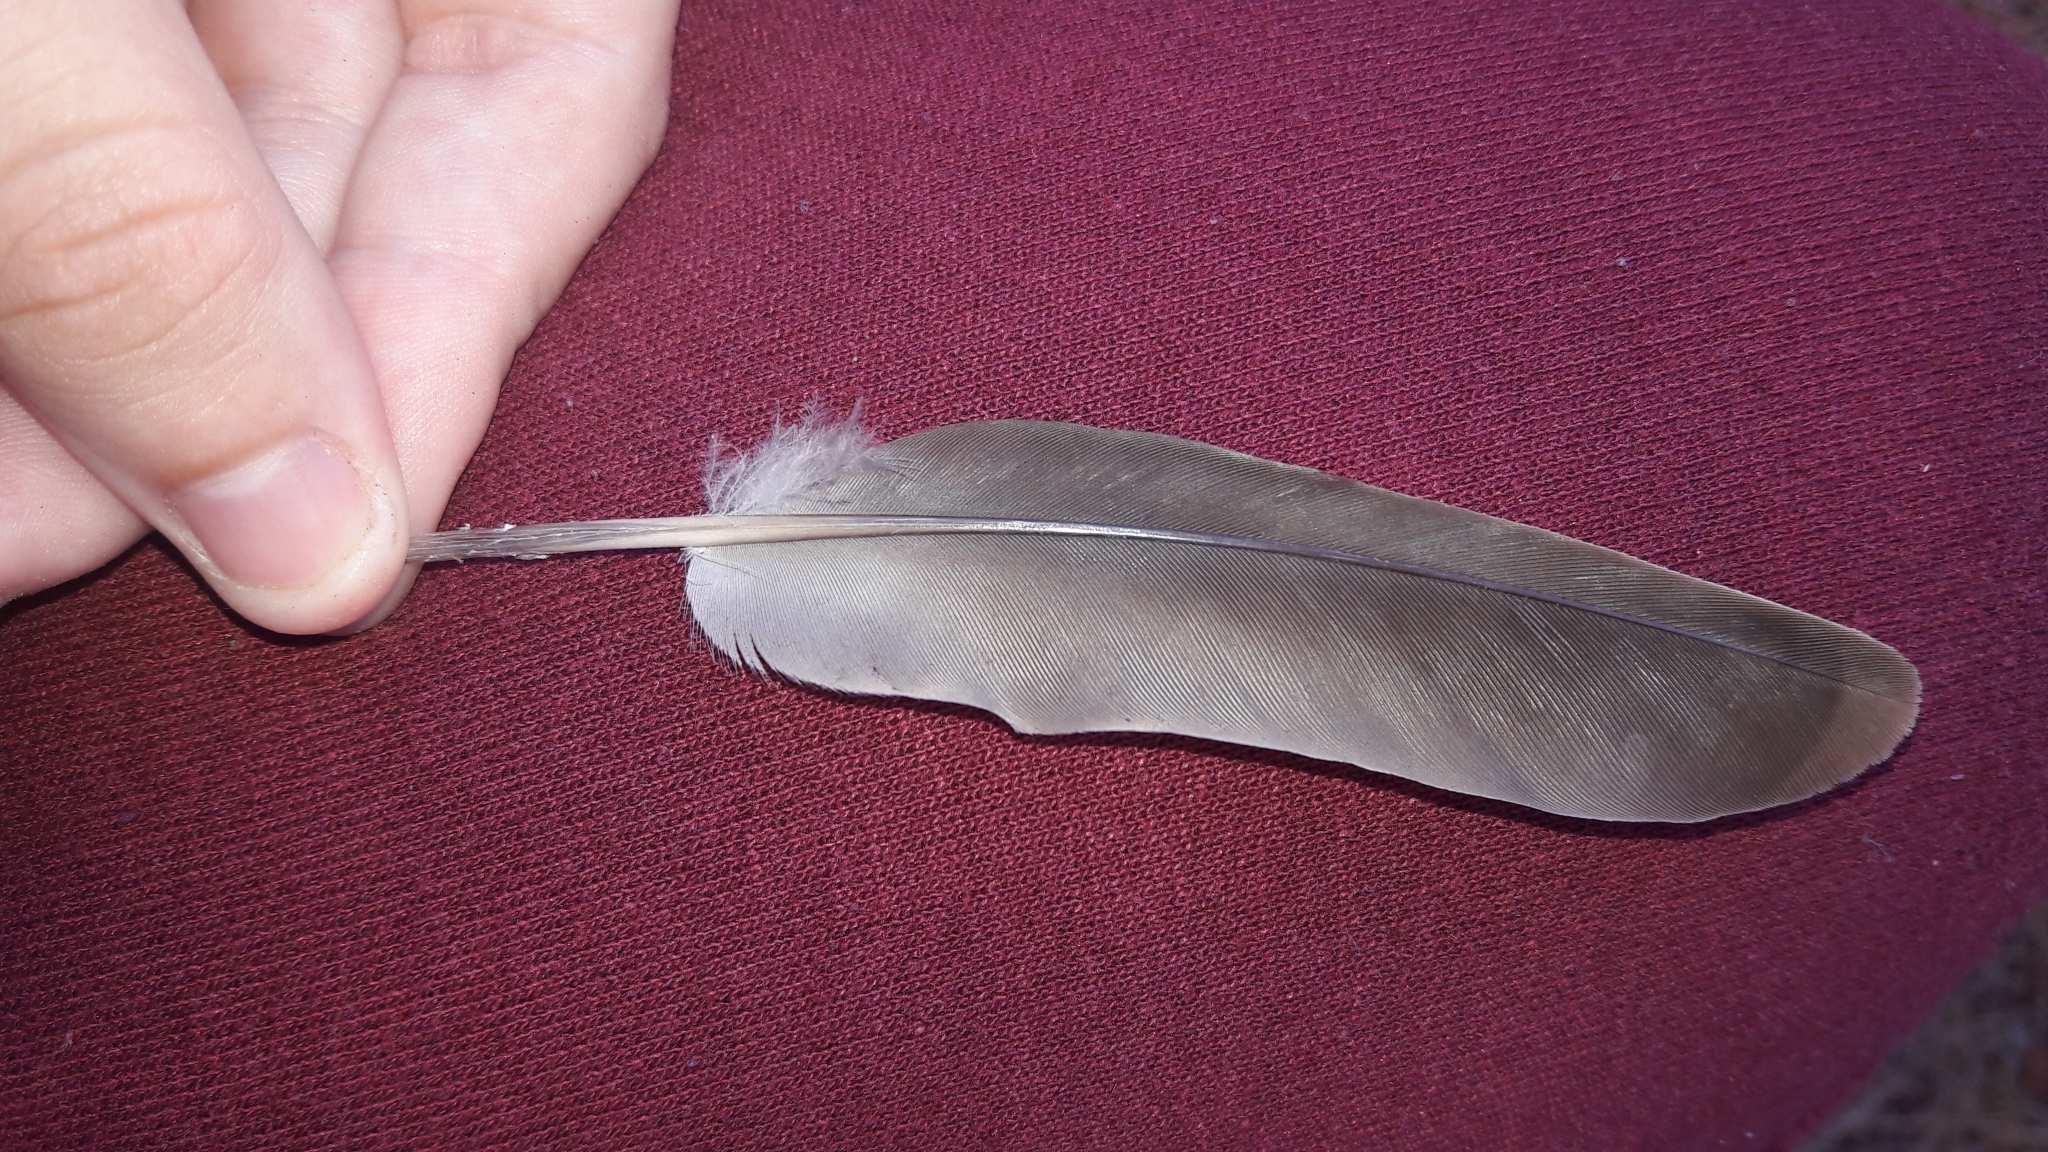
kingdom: Animalia
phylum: Chordata
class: Aves
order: Columbiformes
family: Columbidae
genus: Spilopelia
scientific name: Spilopelia senegalensis
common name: Laughing dove
